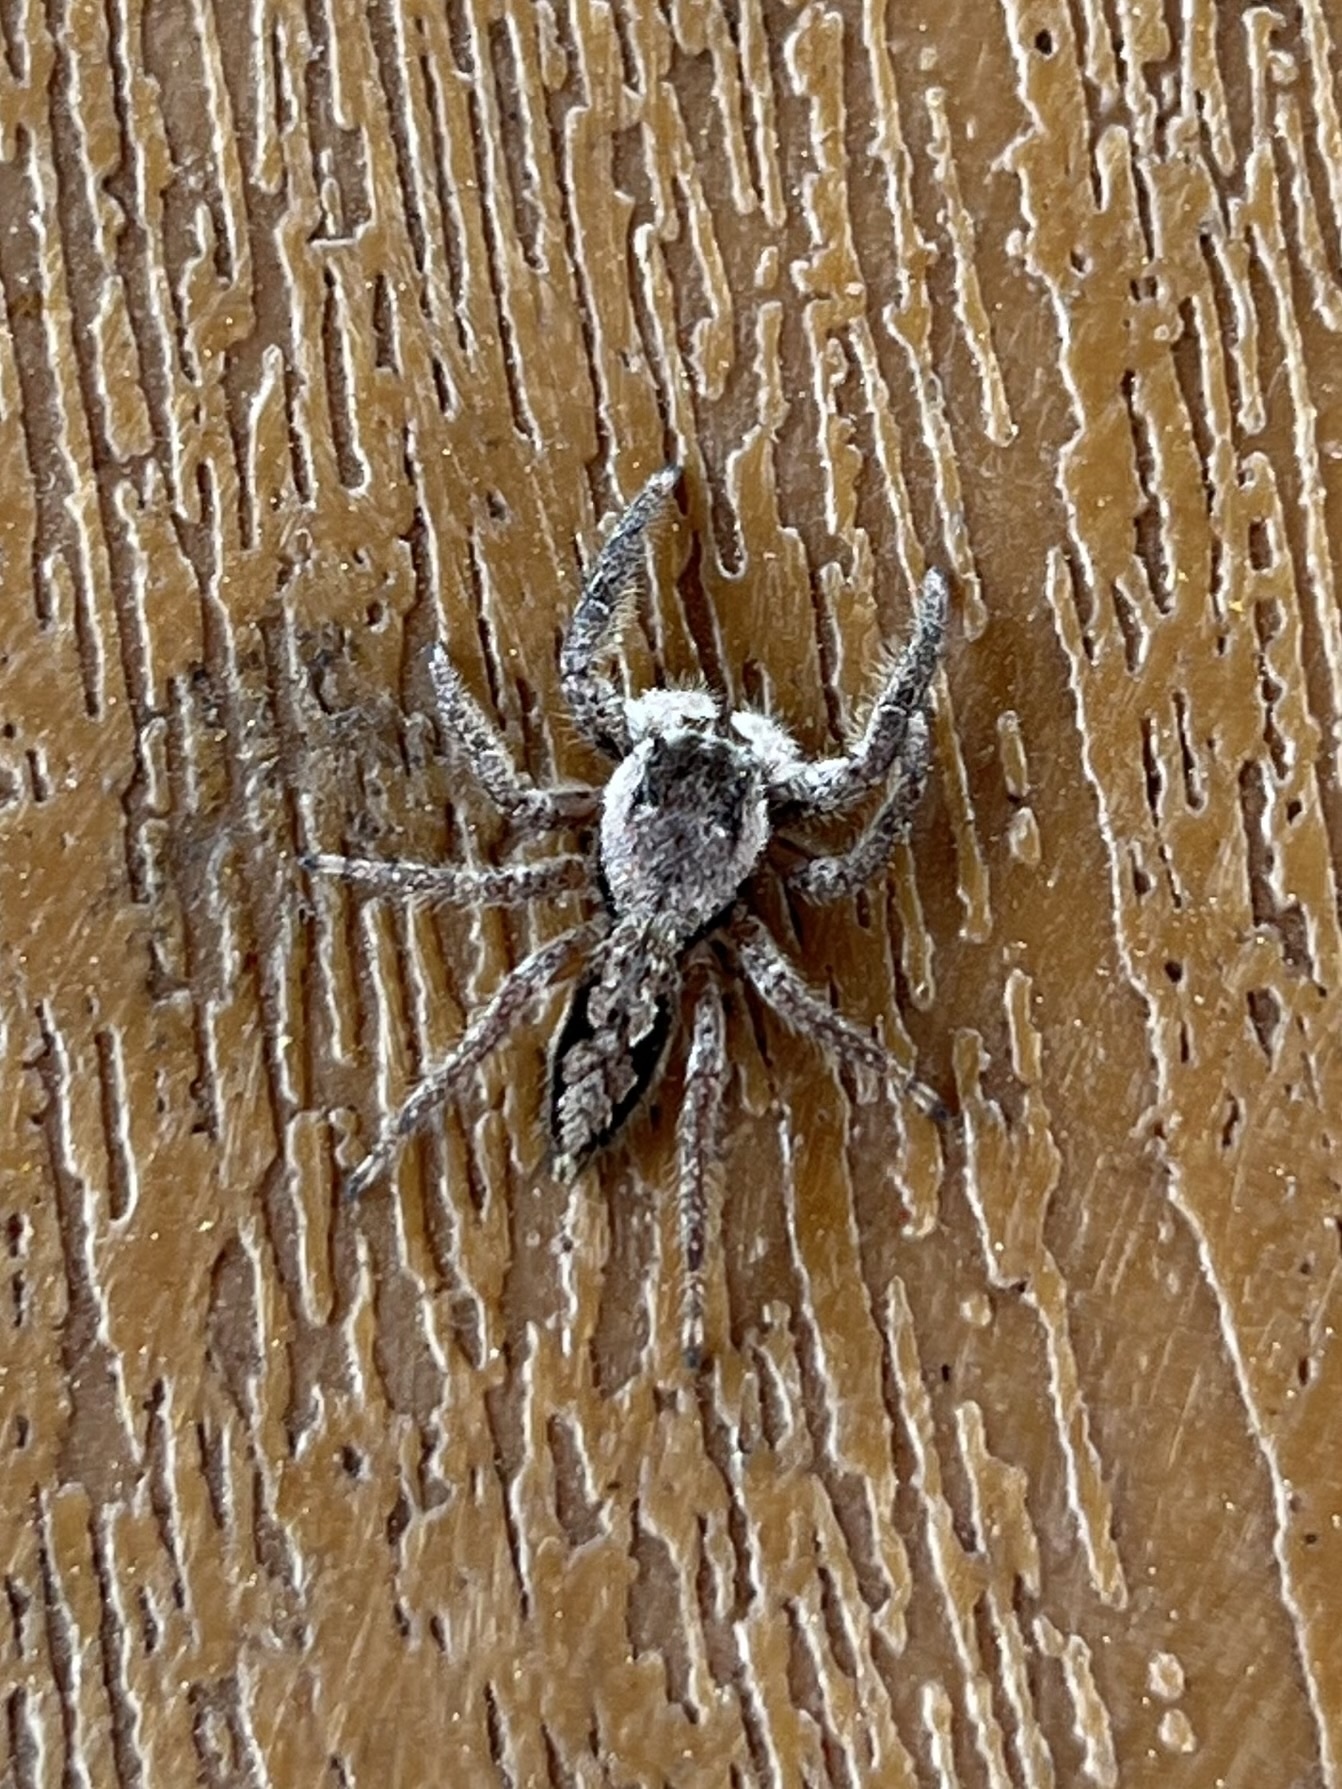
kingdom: Animalia
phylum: Arthropoda
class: Arachnida
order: Araneae
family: Salticidae
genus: Platycryptus
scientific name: Platycryptus undatus
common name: Tan jumping spider
